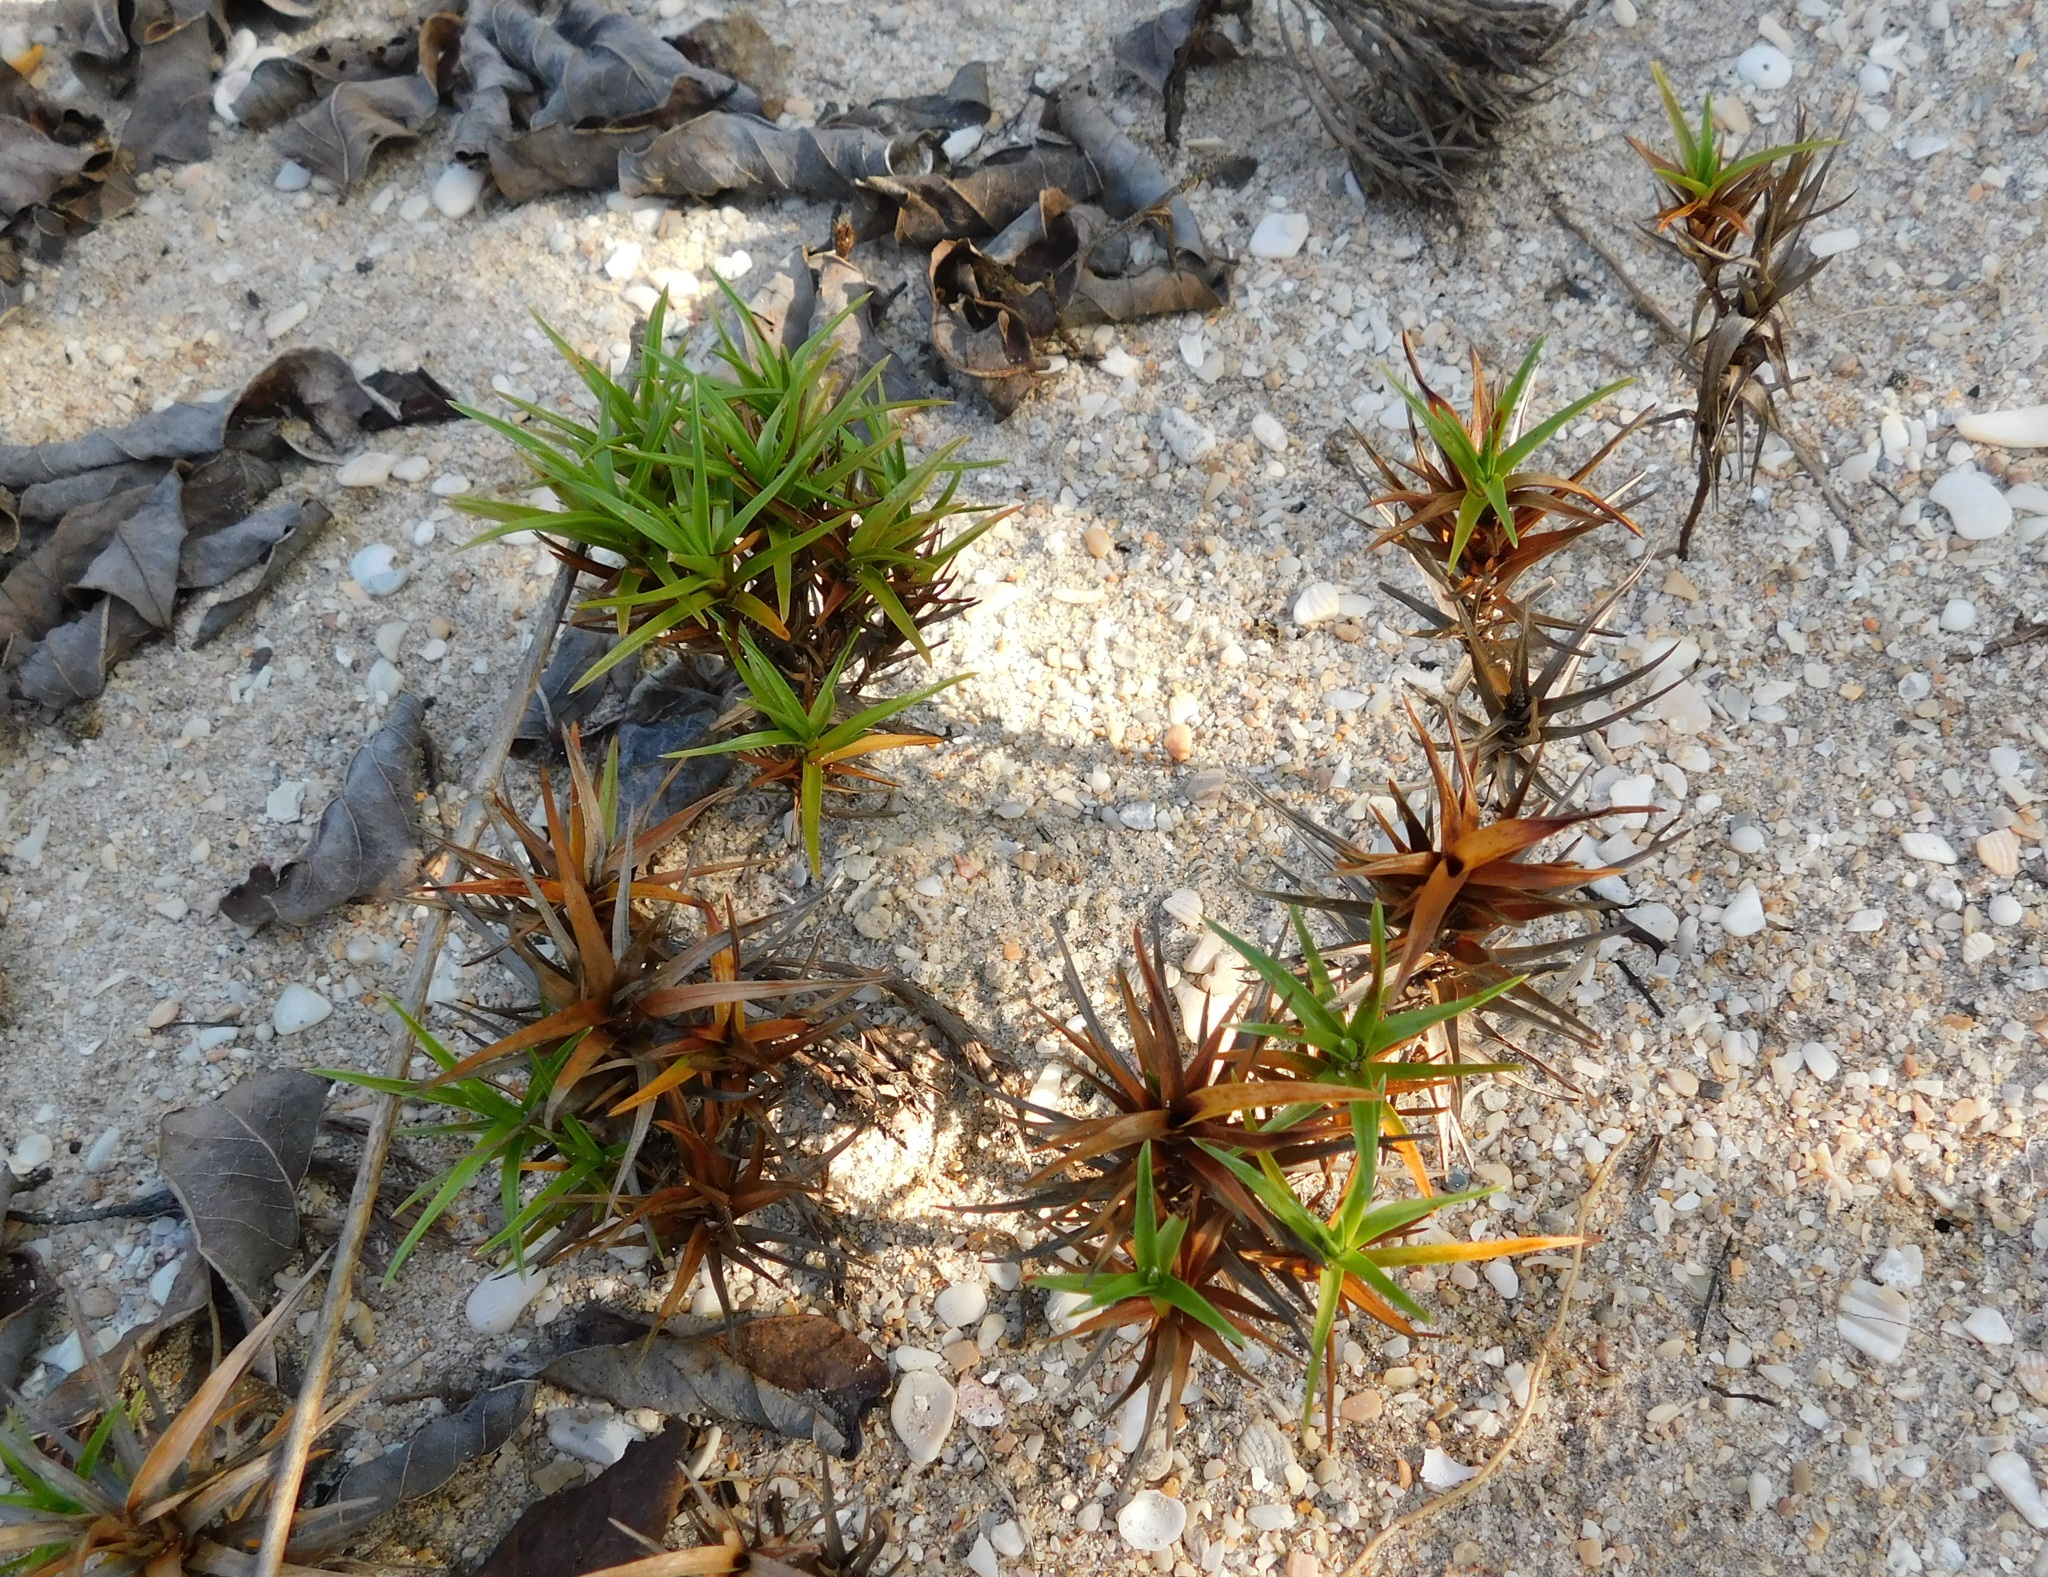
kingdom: Plantae
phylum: Tracheophyta
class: Liliopsida
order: Poales
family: Cyperaceae
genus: Cyperus
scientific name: Cyperus pedunculatus
